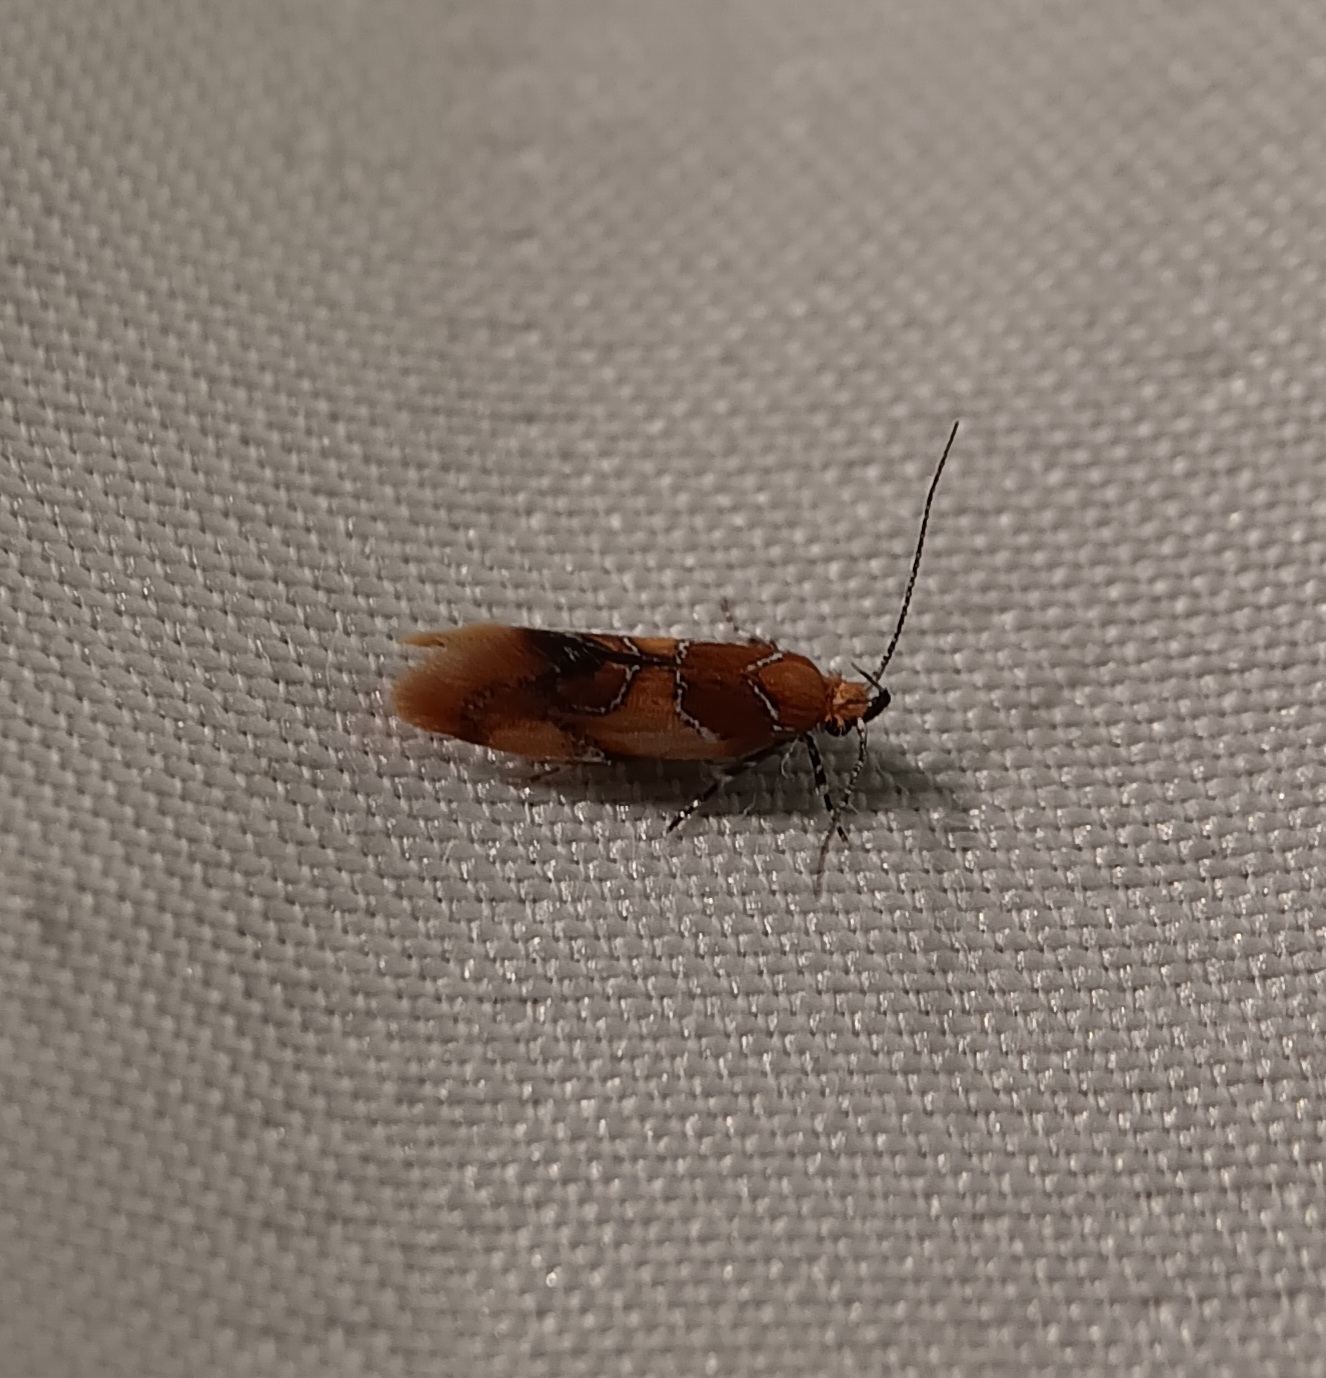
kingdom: Animalia
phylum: Arthropoda
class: Insecta
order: Lepidoptera
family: Oecophoridae
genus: Callima
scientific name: Callima argenticinctella
